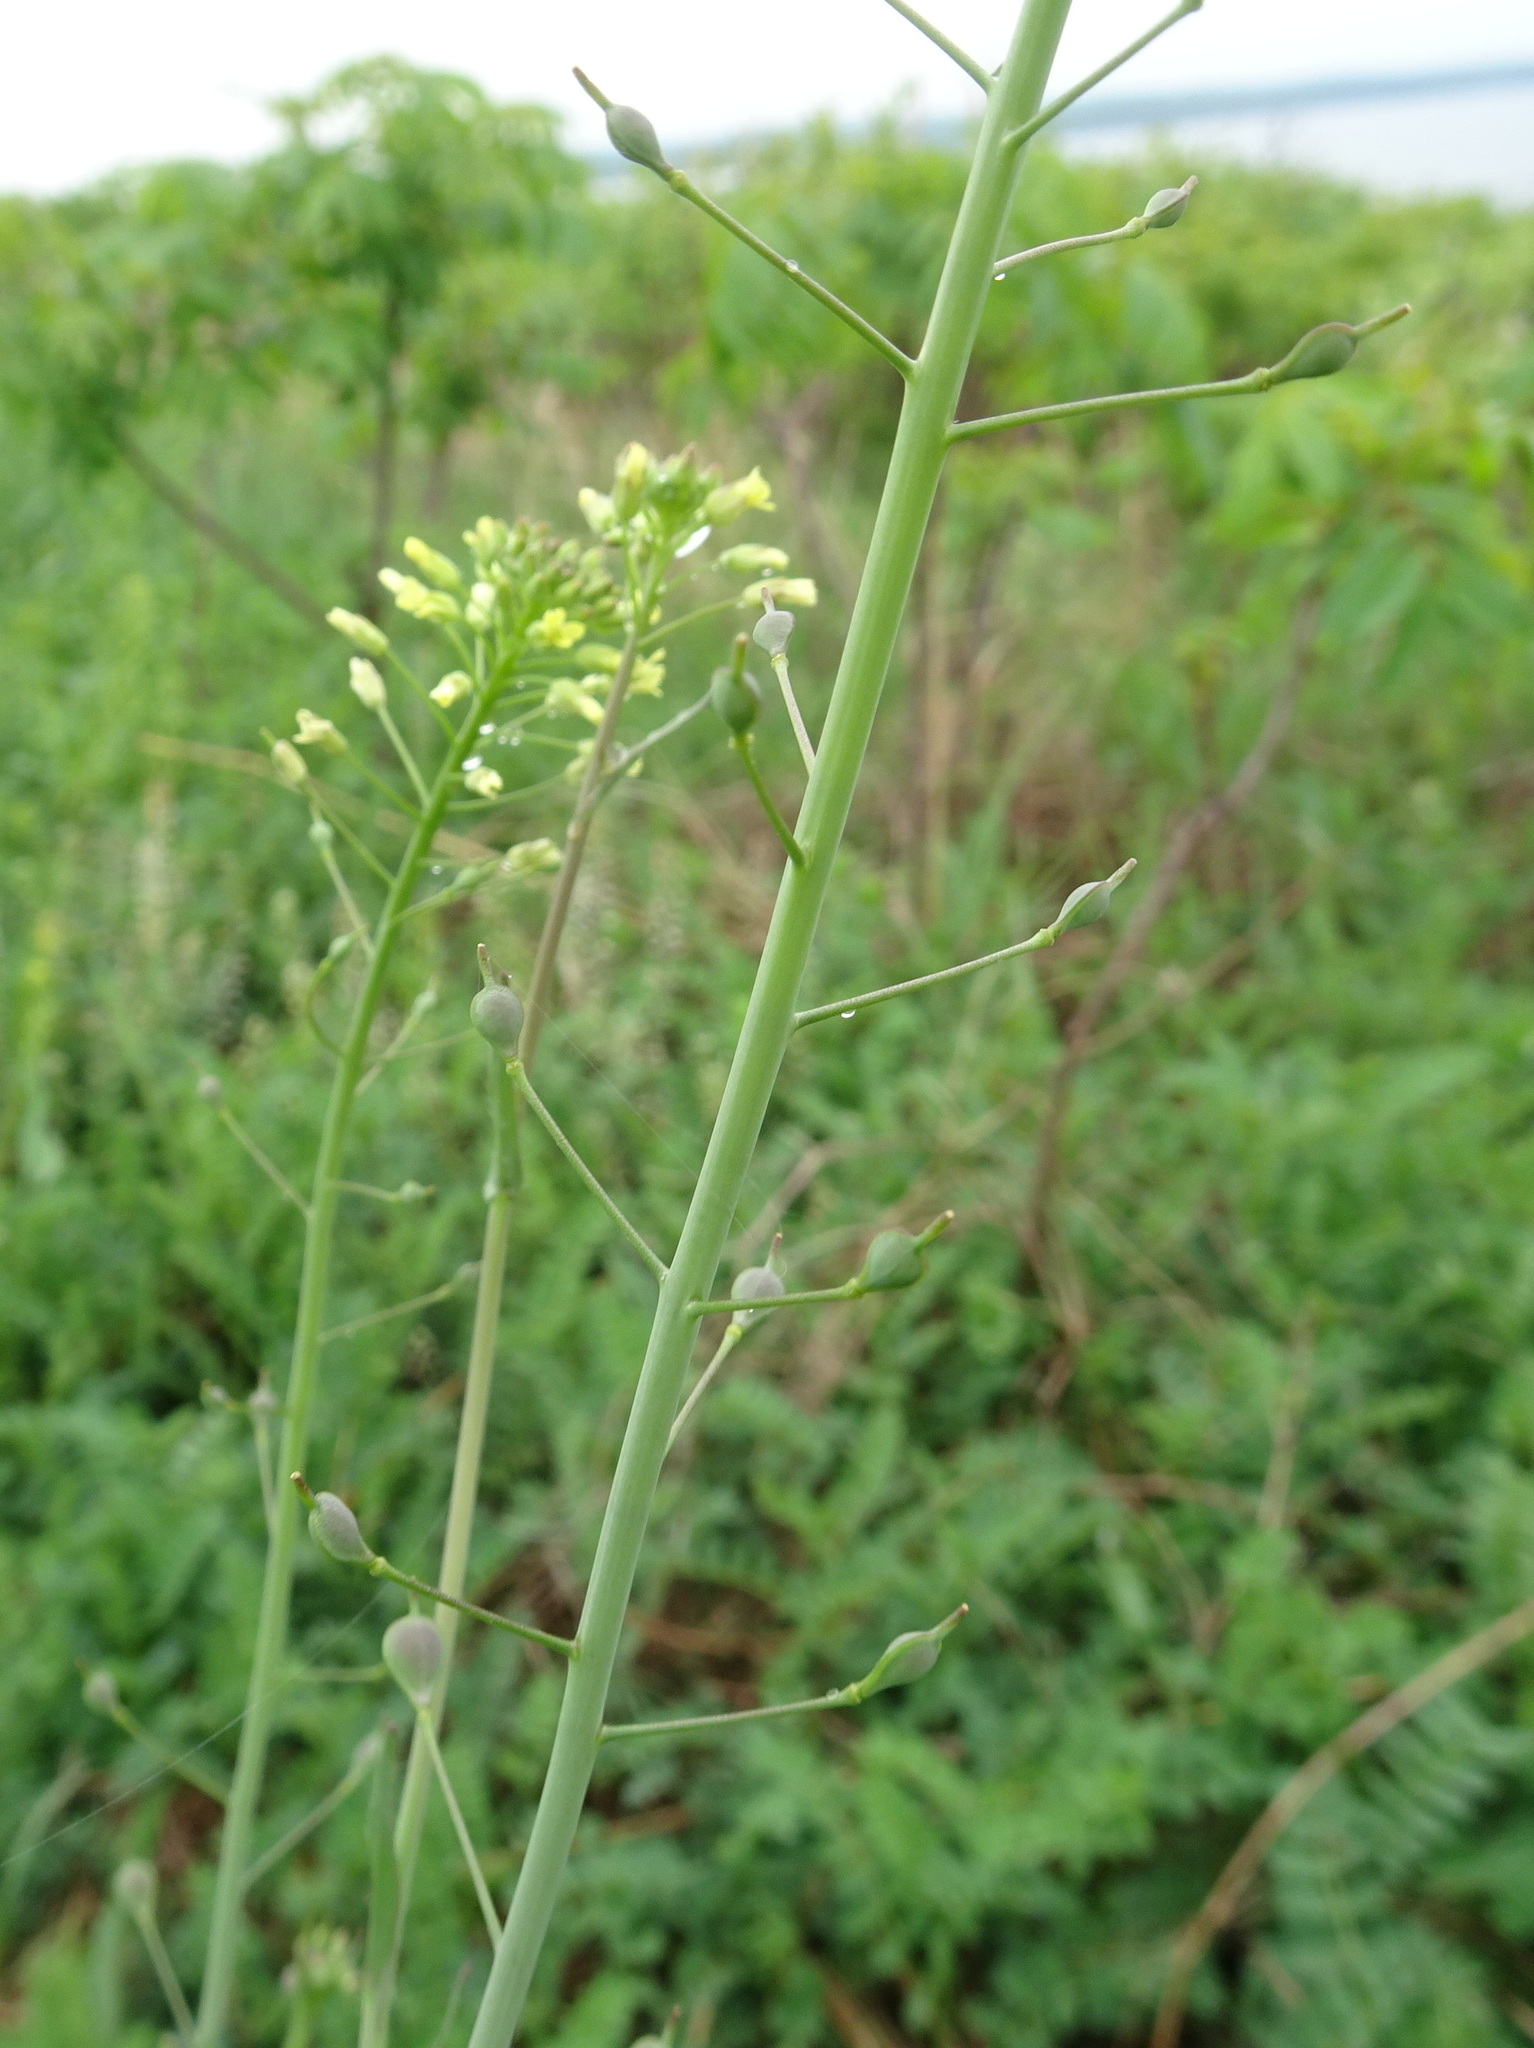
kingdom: Plantae
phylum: Tracheophyta
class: Magnoliopsida
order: Brassicales
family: Brassicaceae
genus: Camelina
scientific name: Camelina microcarpa
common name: Lesser gold-of-pleasure
